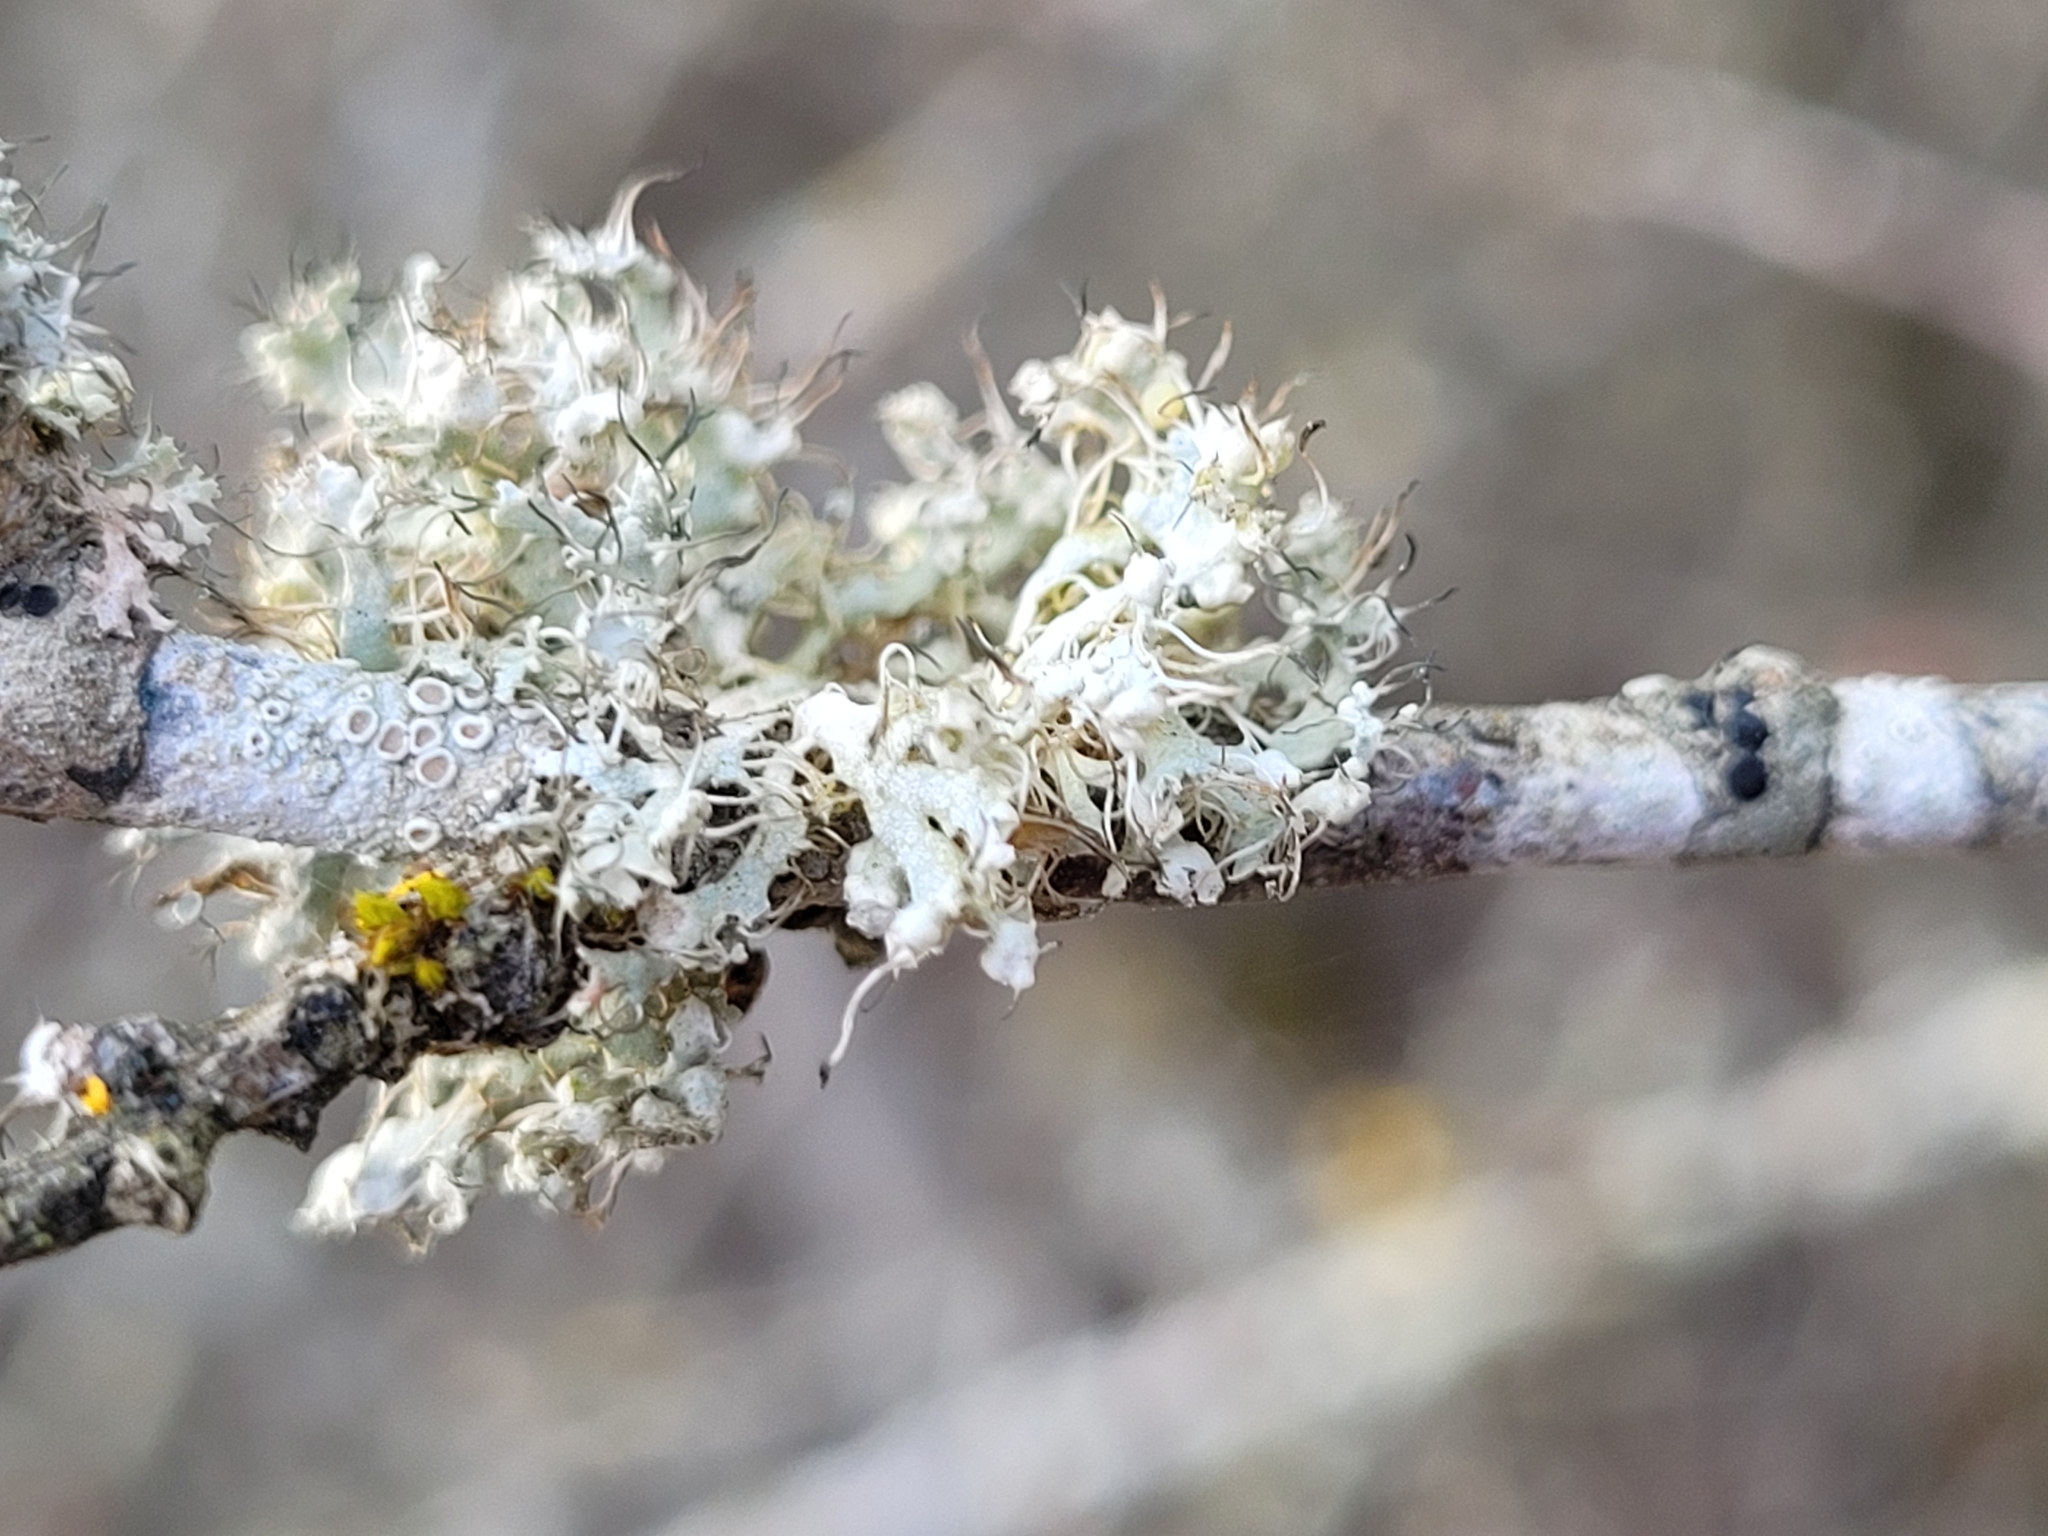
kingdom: Fungi
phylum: Ascomycota
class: Lecanoromycetes
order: Caliciales
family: Physciaceae
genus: Physcia
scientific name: Physcia adscendens
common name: Hooded rosette lichen
